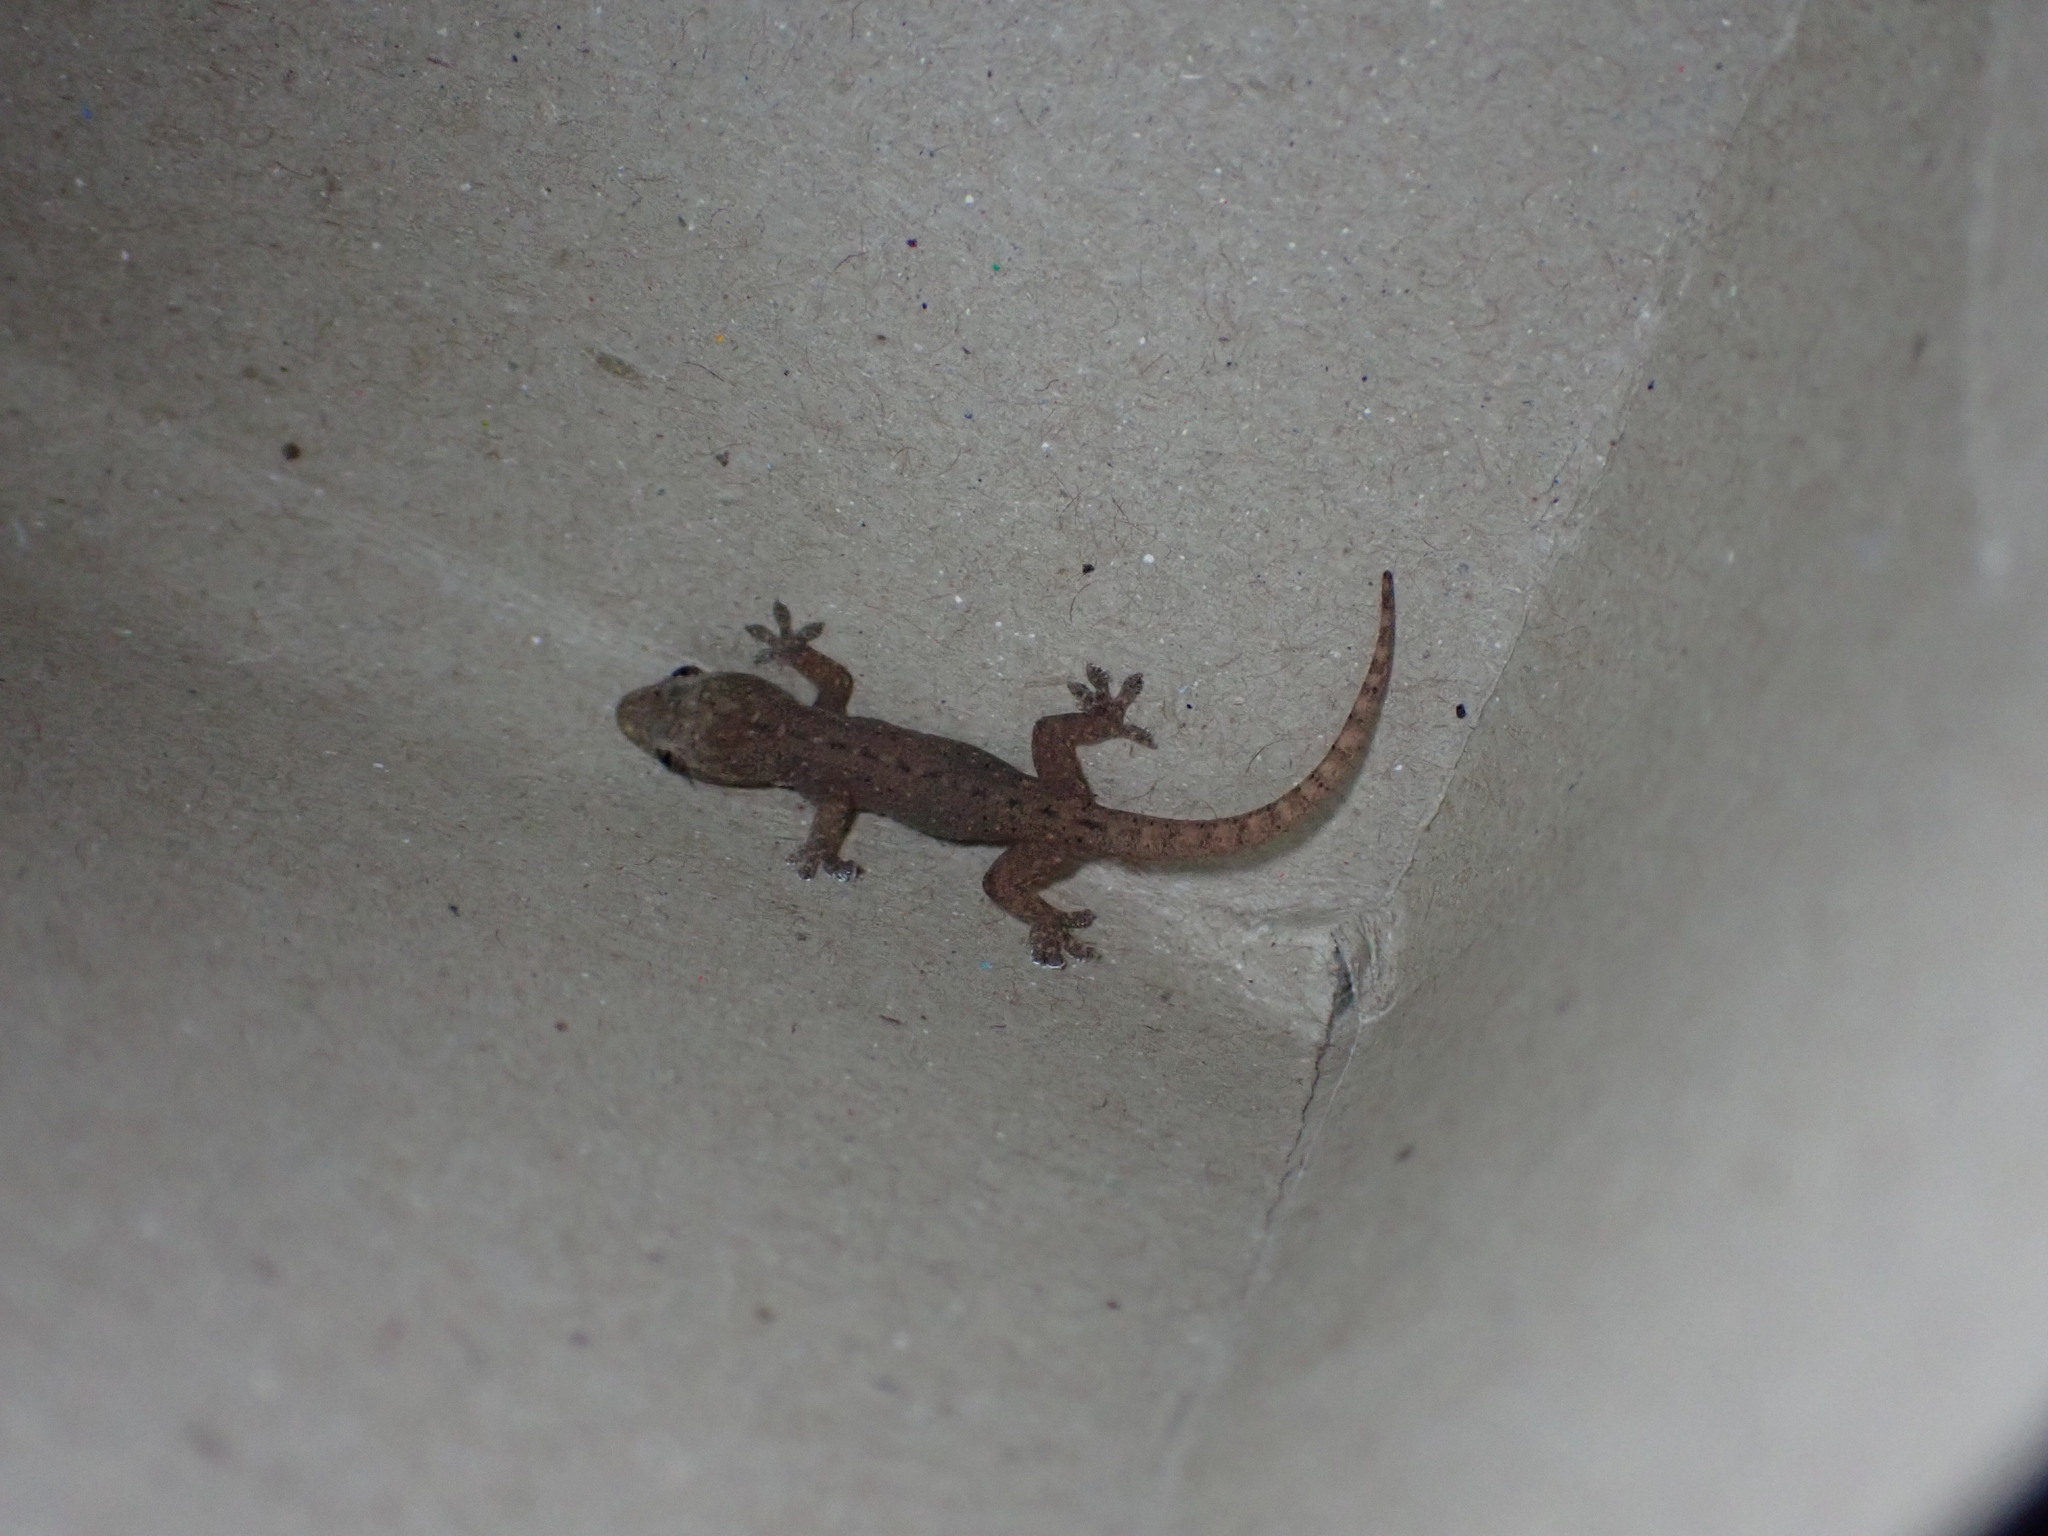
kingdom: Animalia
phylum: Chordata
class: Squamata
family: Gekkonidae
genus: Hemidactylus
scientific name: Hemidactylus frenatus
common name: Common house gecko
